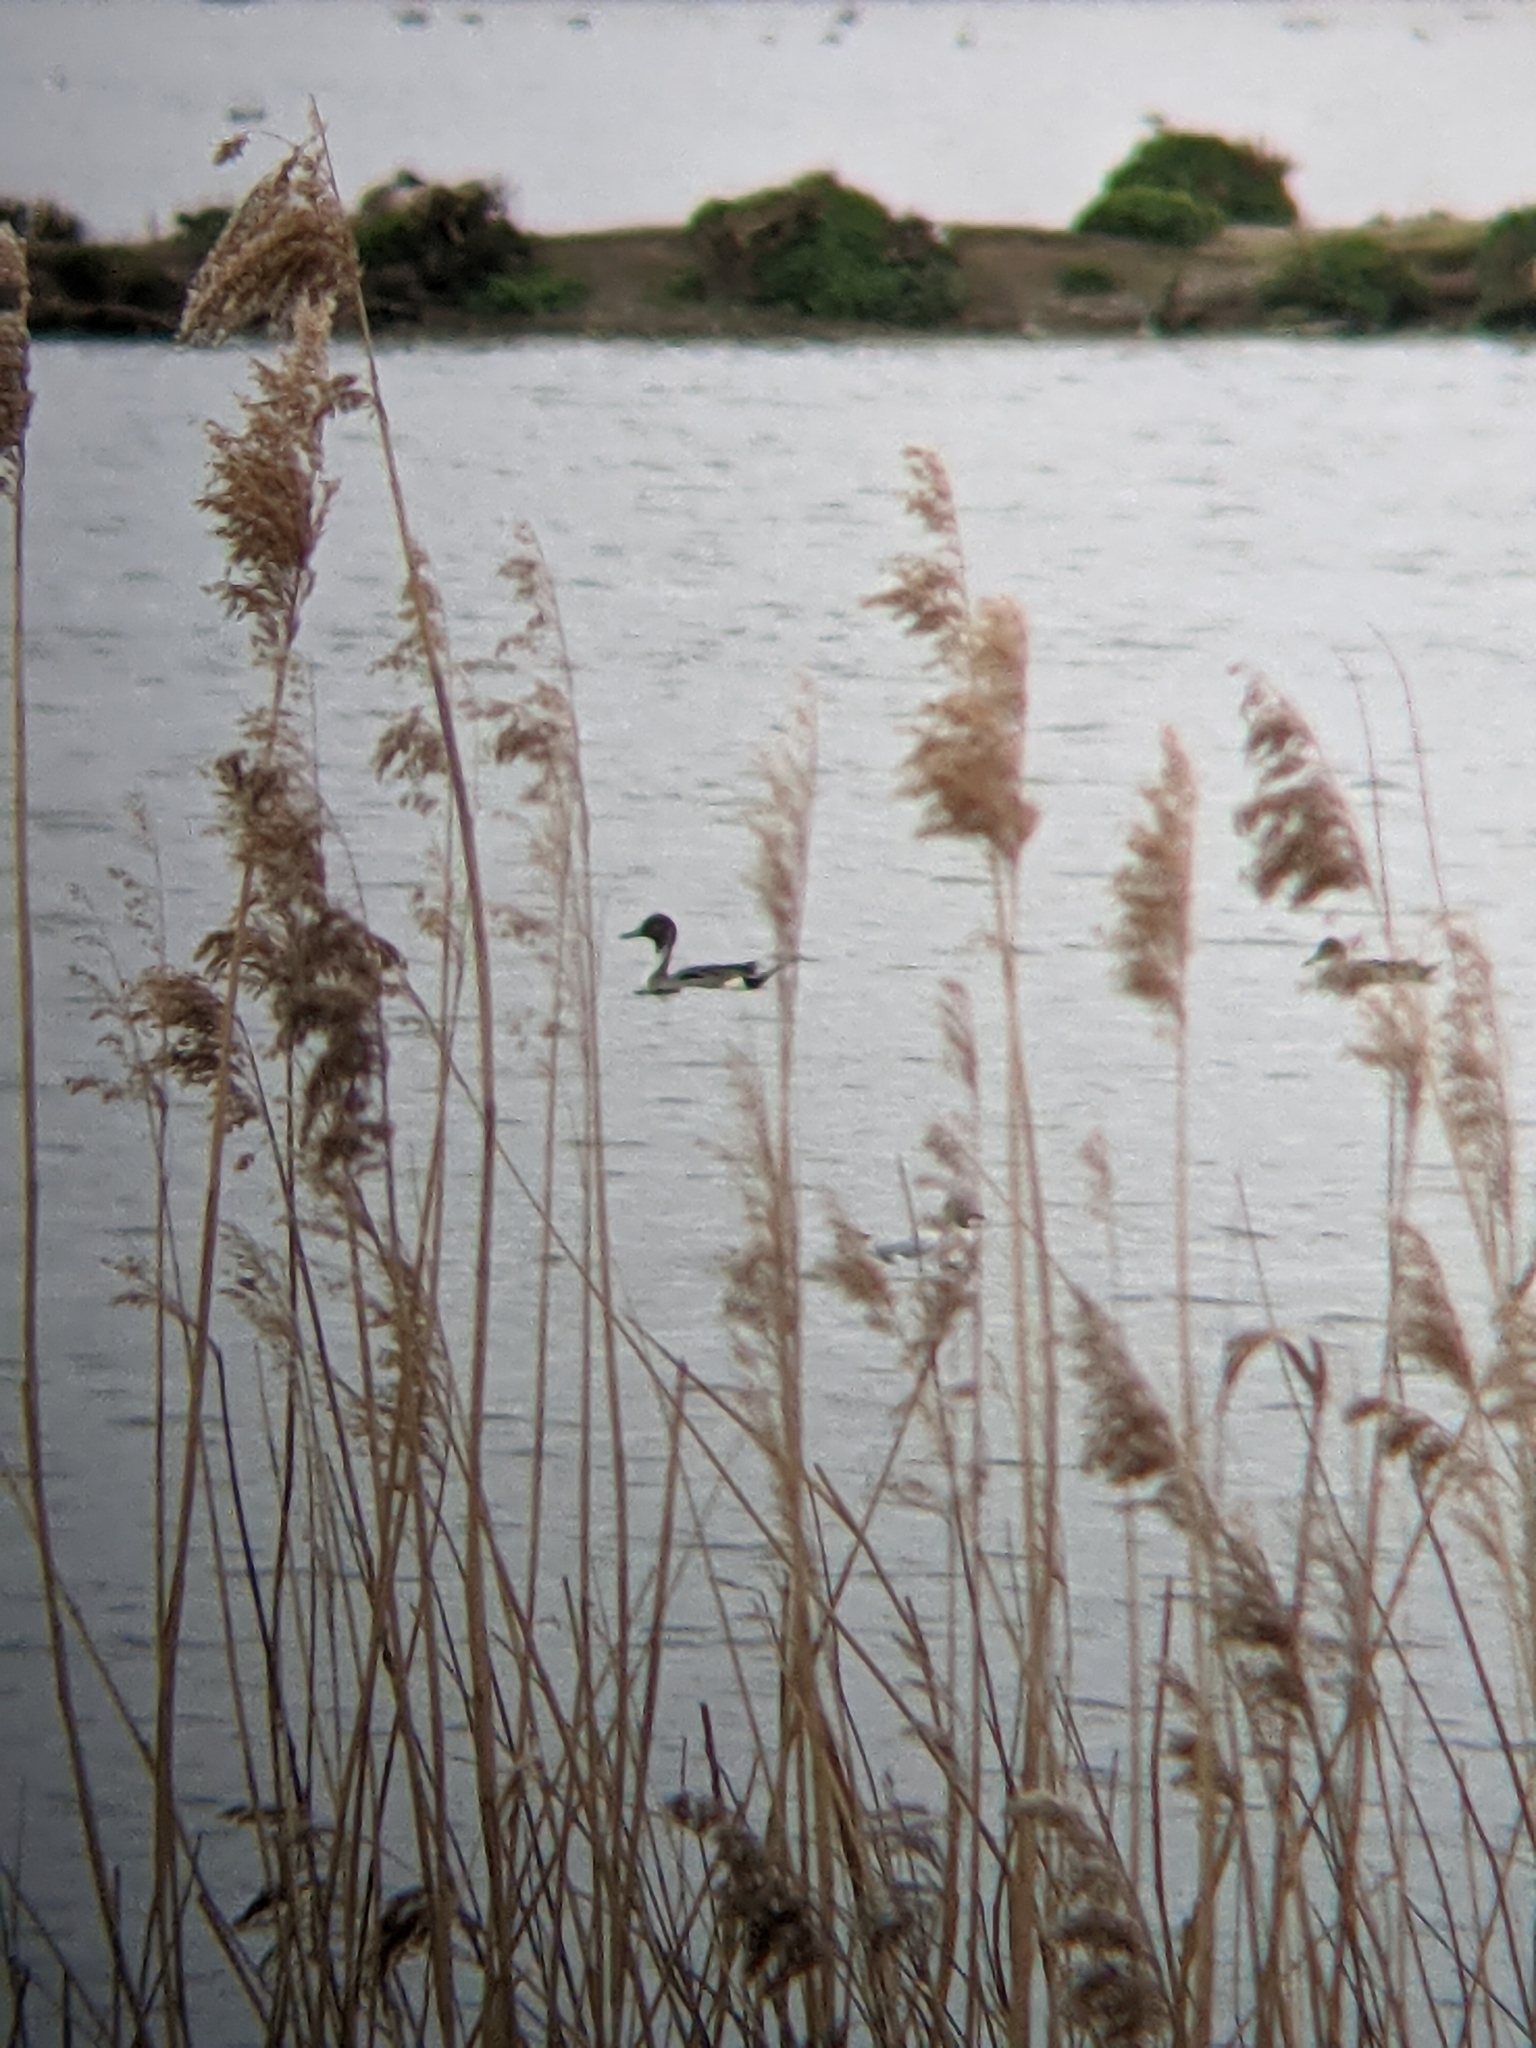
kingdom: Animalia
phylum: Chordata
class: Aves
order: Anseriformes
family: Anatidae
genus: Anas
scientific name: Anas acuta
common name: Northern pintail
